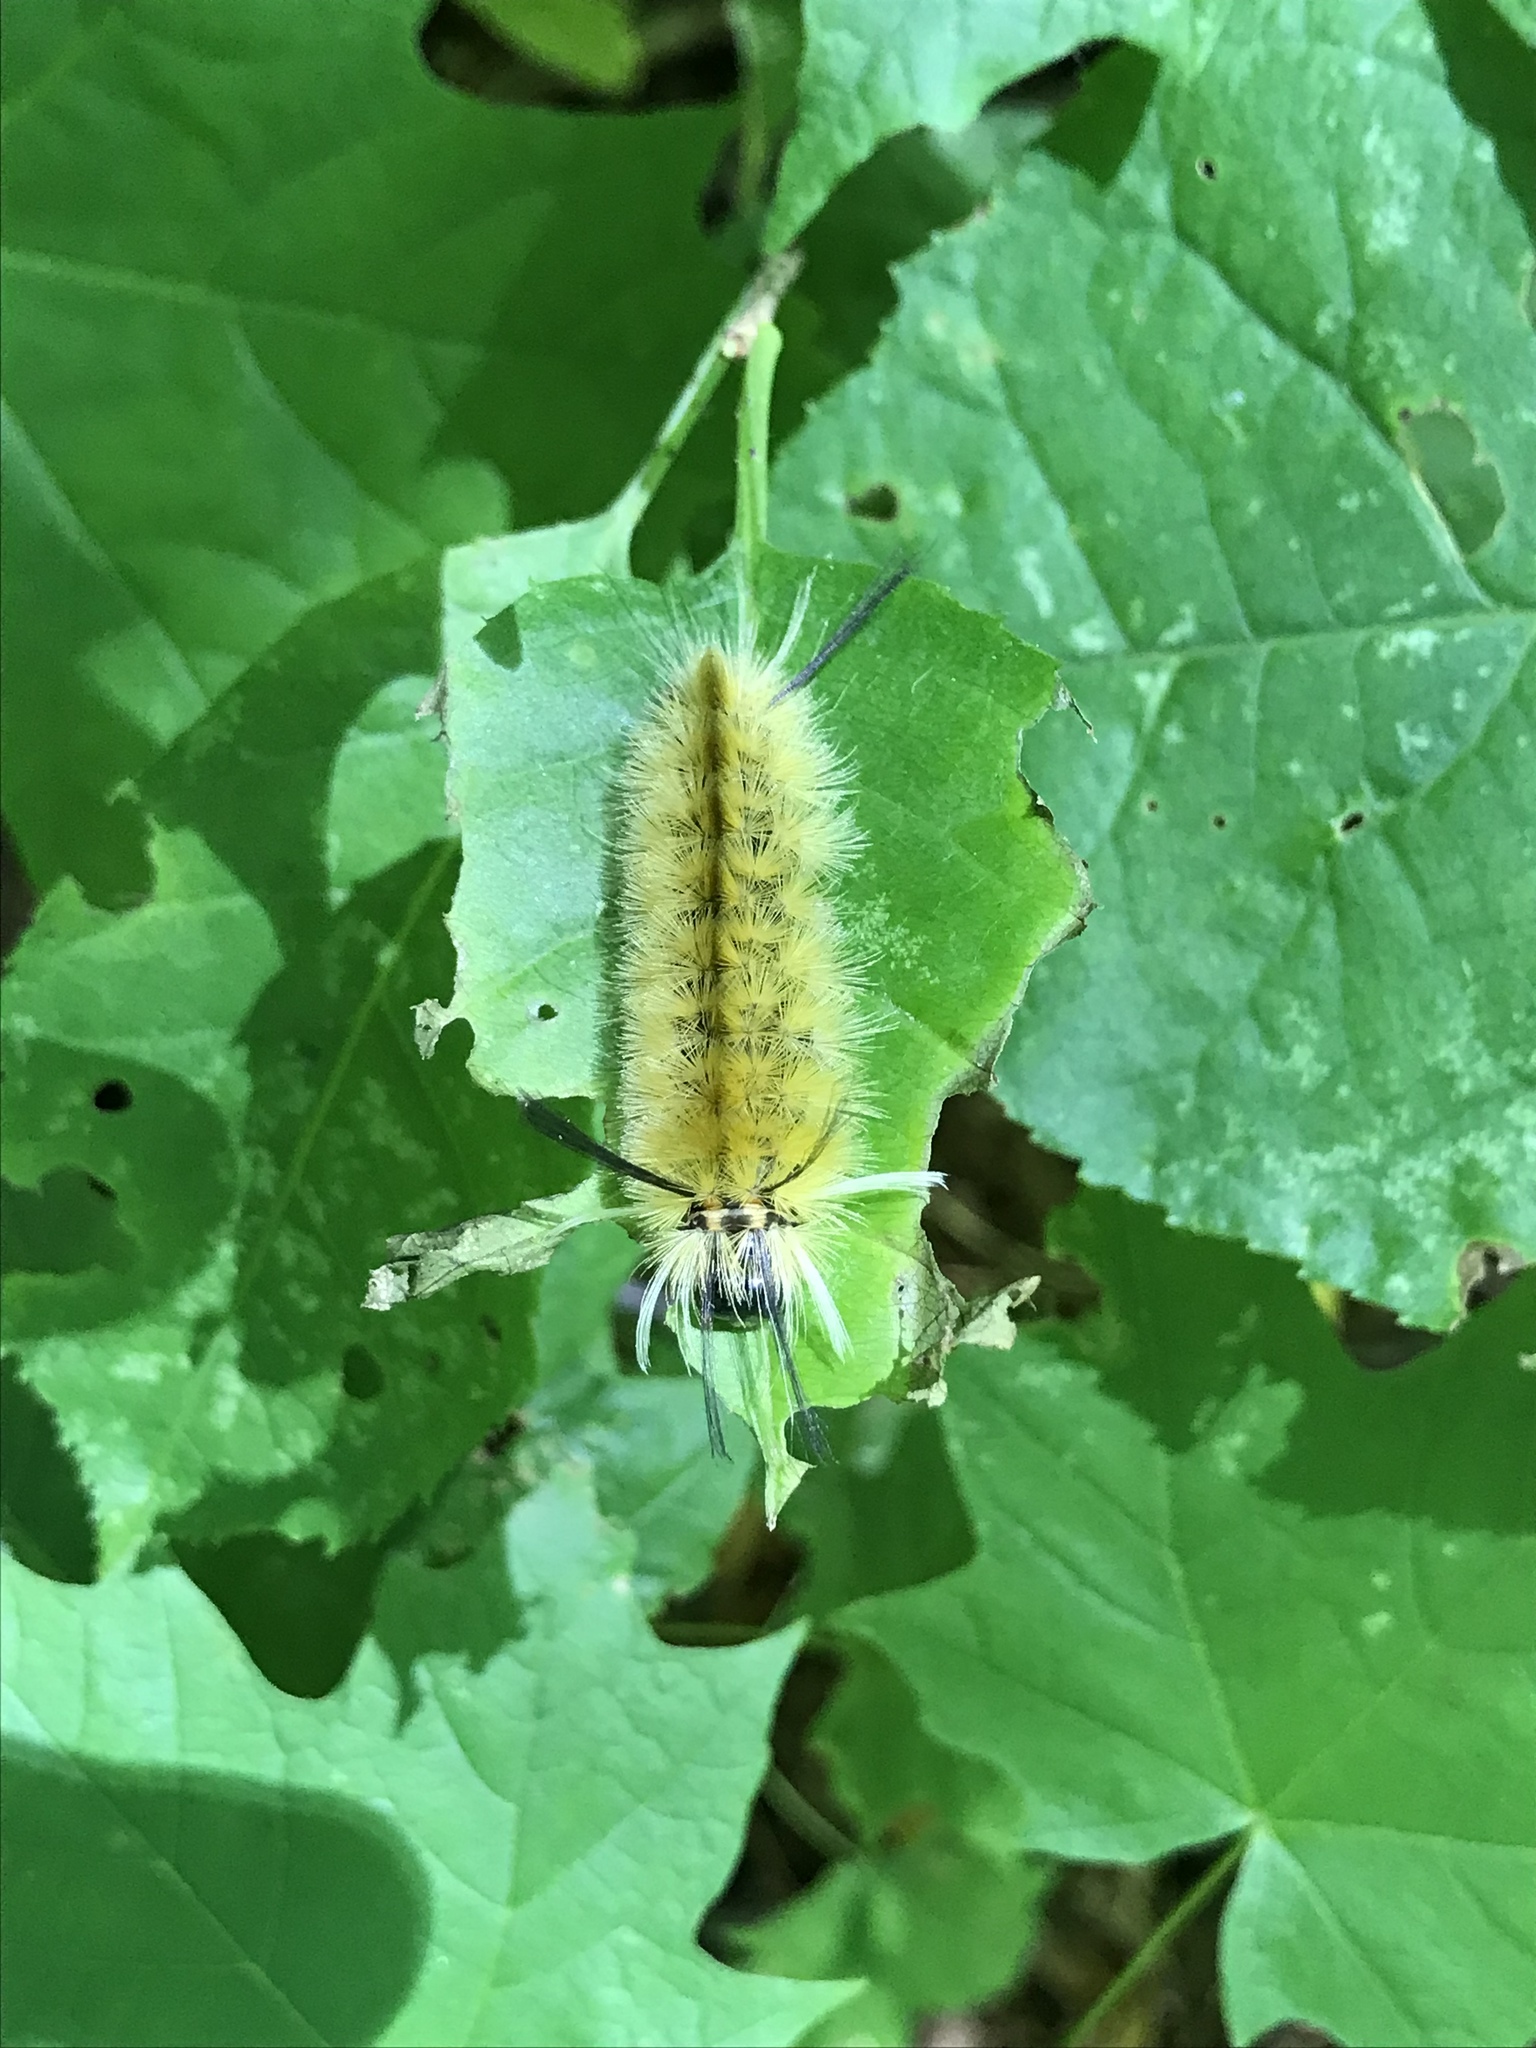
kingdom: Animalia
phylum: Arthropoda
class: Insecta
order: Lepidoptera
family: Erebidae
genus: Halysidota
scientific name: Halysidota tessellaris
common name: Banded tussock moth
